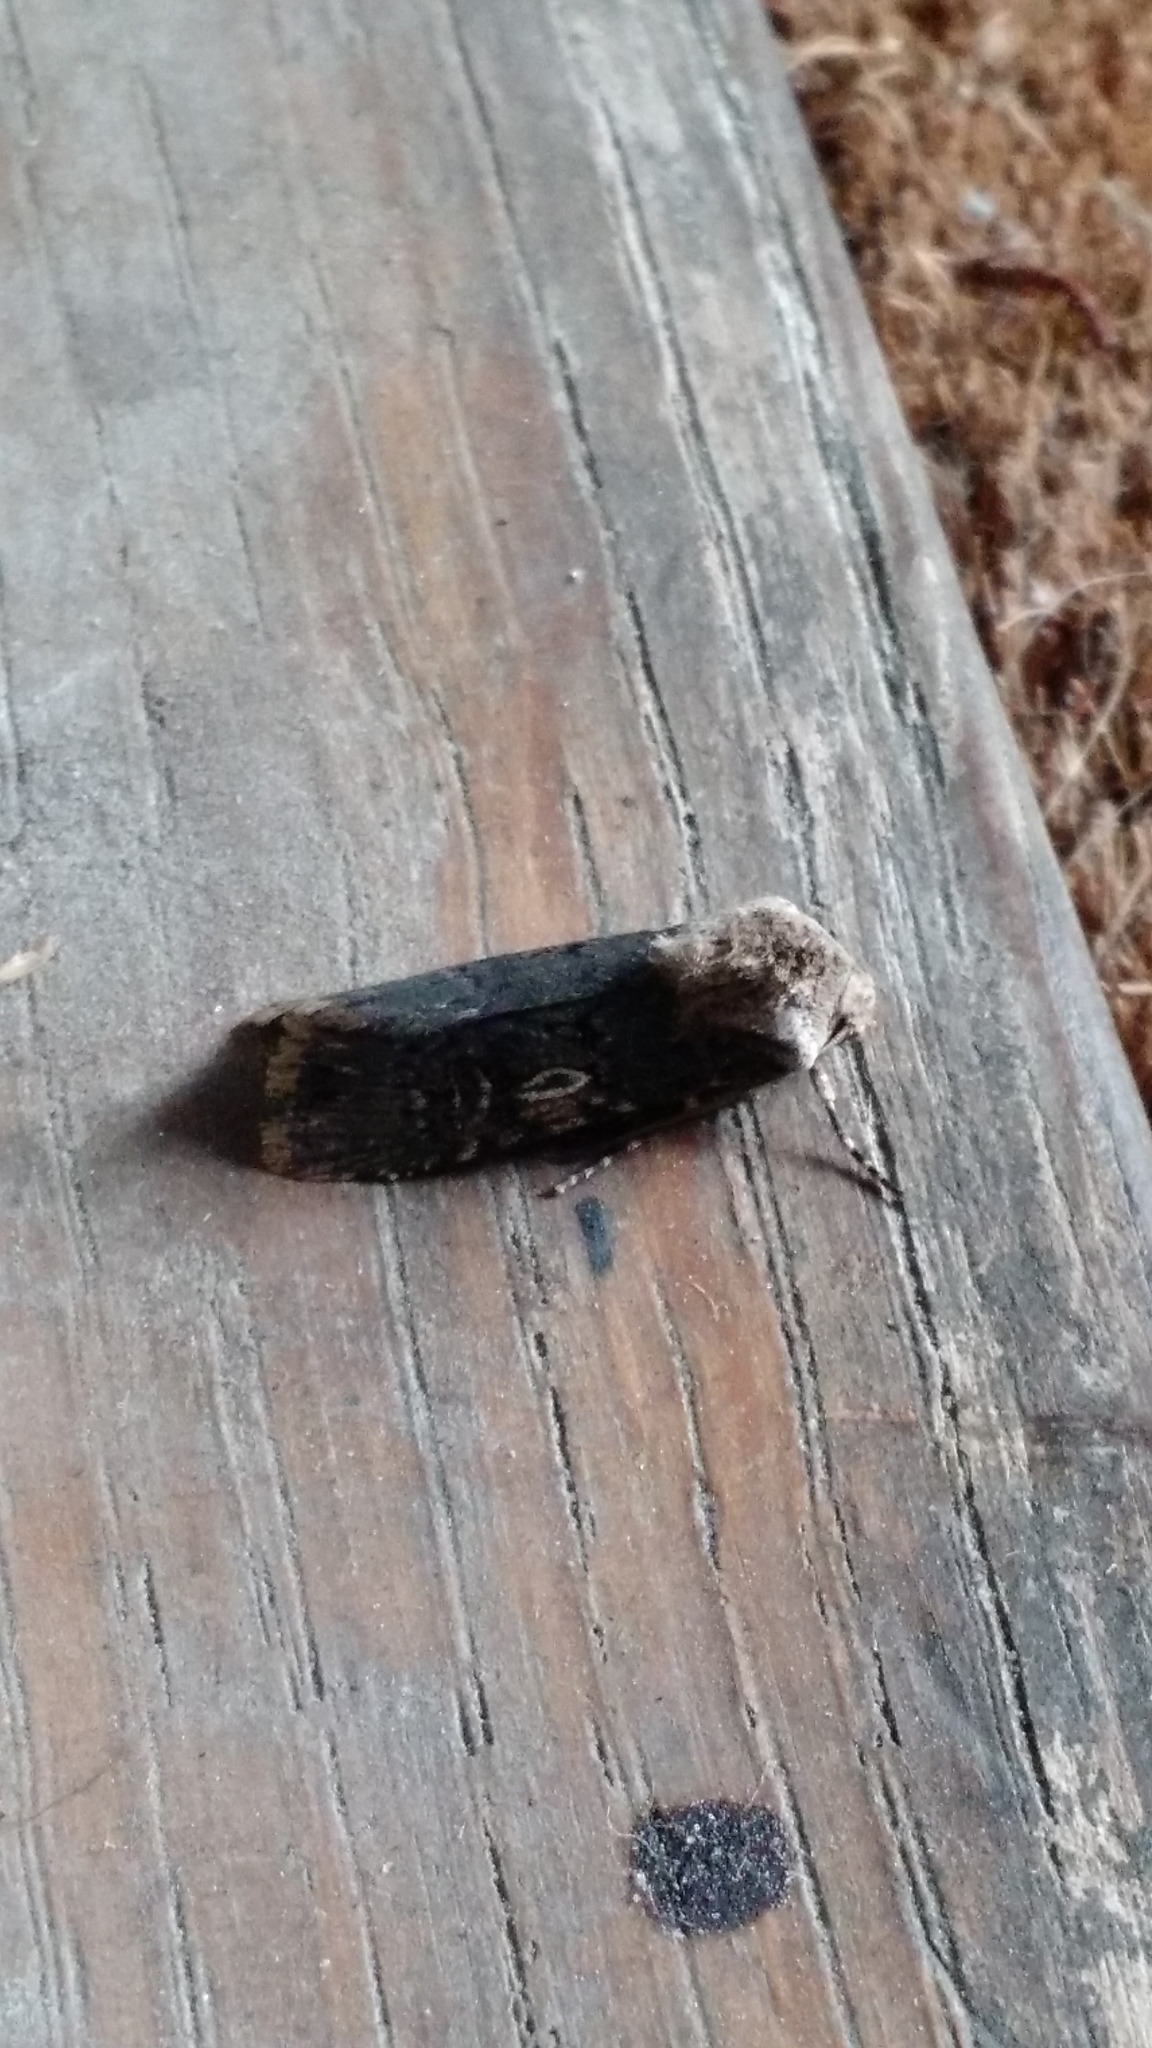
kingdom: Animalia
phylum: Arthropoda
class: Insecta
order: Lepidoptera
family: Noctuidae
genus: Agrotis
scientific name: Agrotis puta
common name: Shuttle-shaped dart
